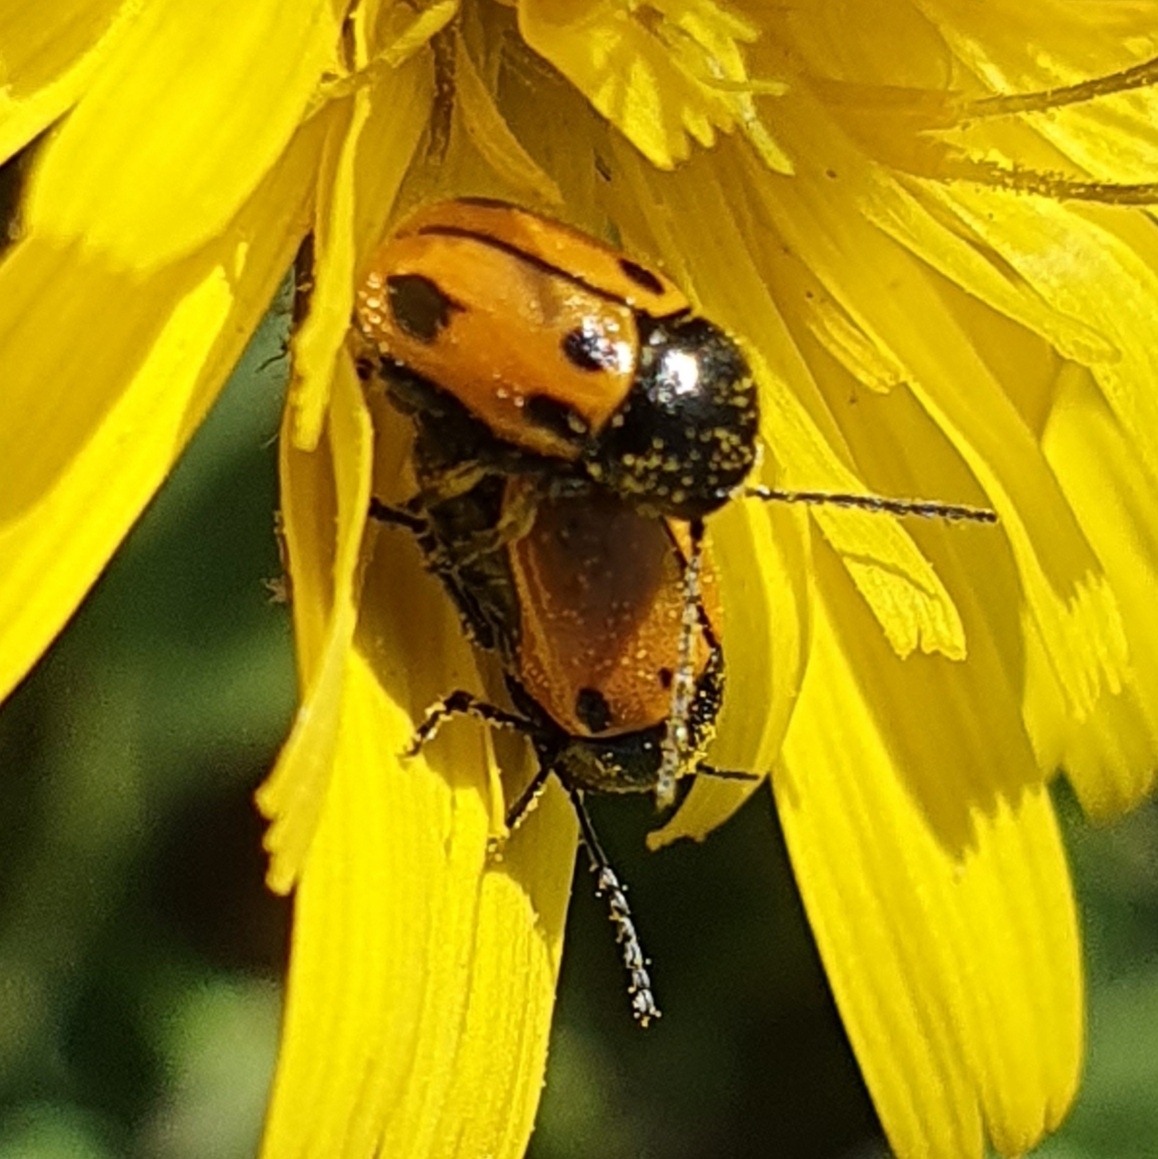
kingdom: Animalia
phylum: Arthropoda
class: Insecta
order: Coleoptera
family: Chrysomelidae
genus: Cryptocephalus
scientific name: Cryptocephalus rugicollis
